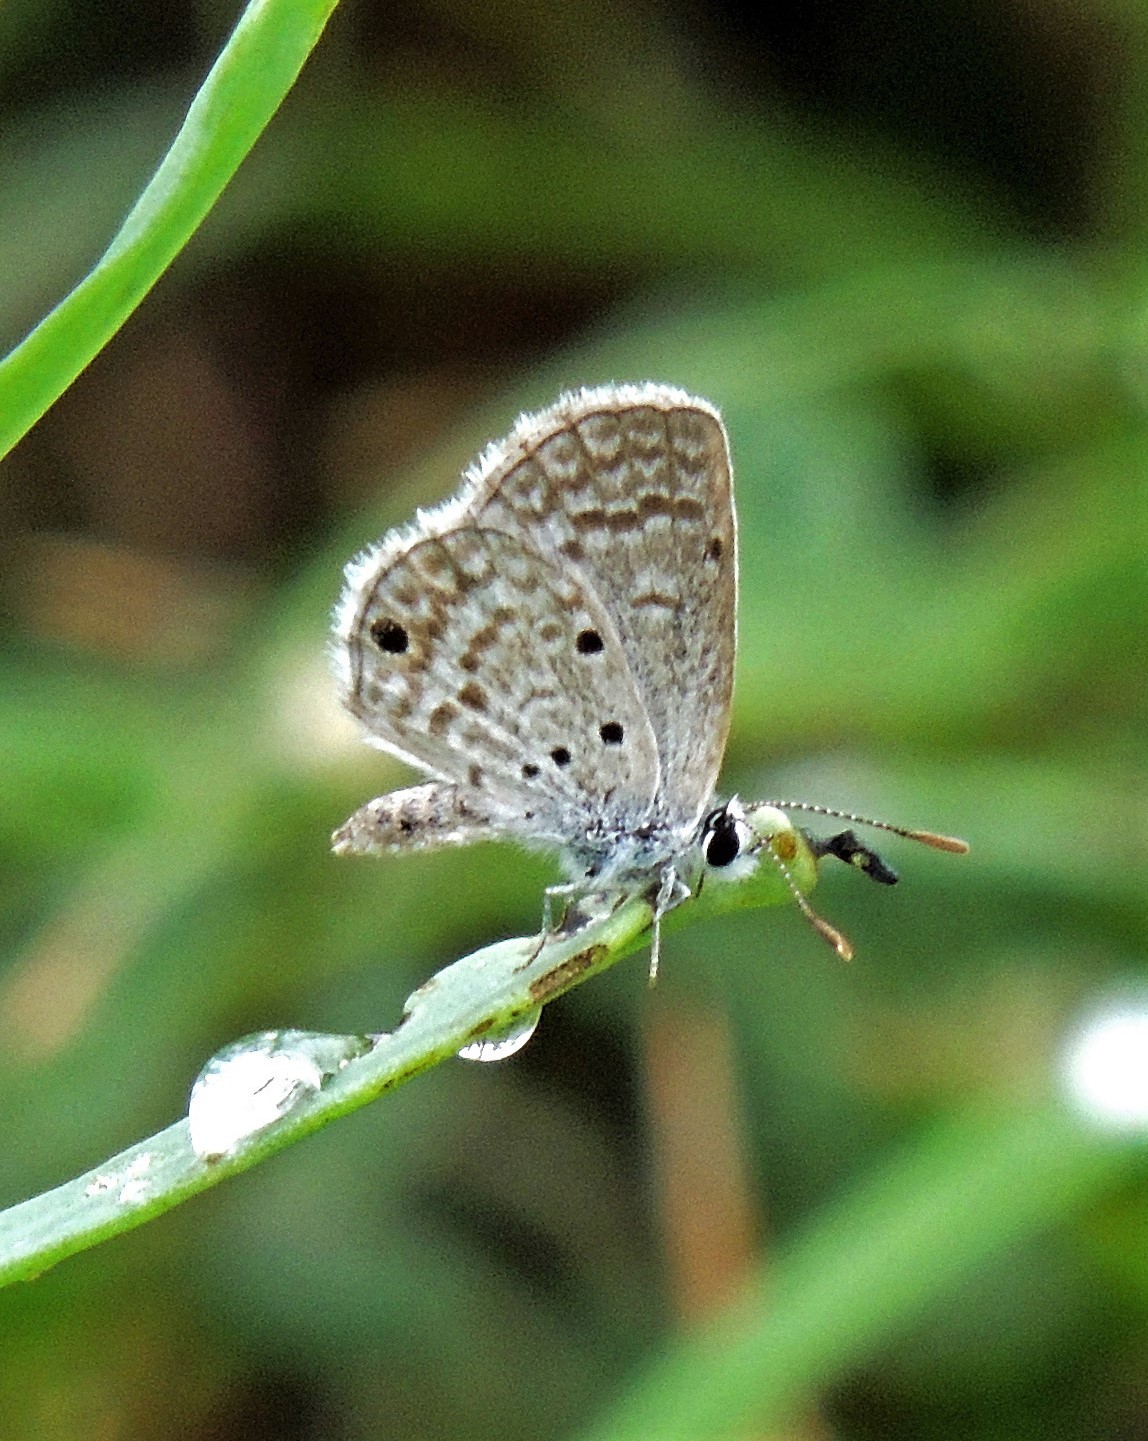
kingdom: Animalia
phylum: Arthropoda
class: Insecta
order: Lepidoptera
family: Lycaenidae
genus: Hemiargus
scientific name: Hemiargus hanno
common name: Common blue
